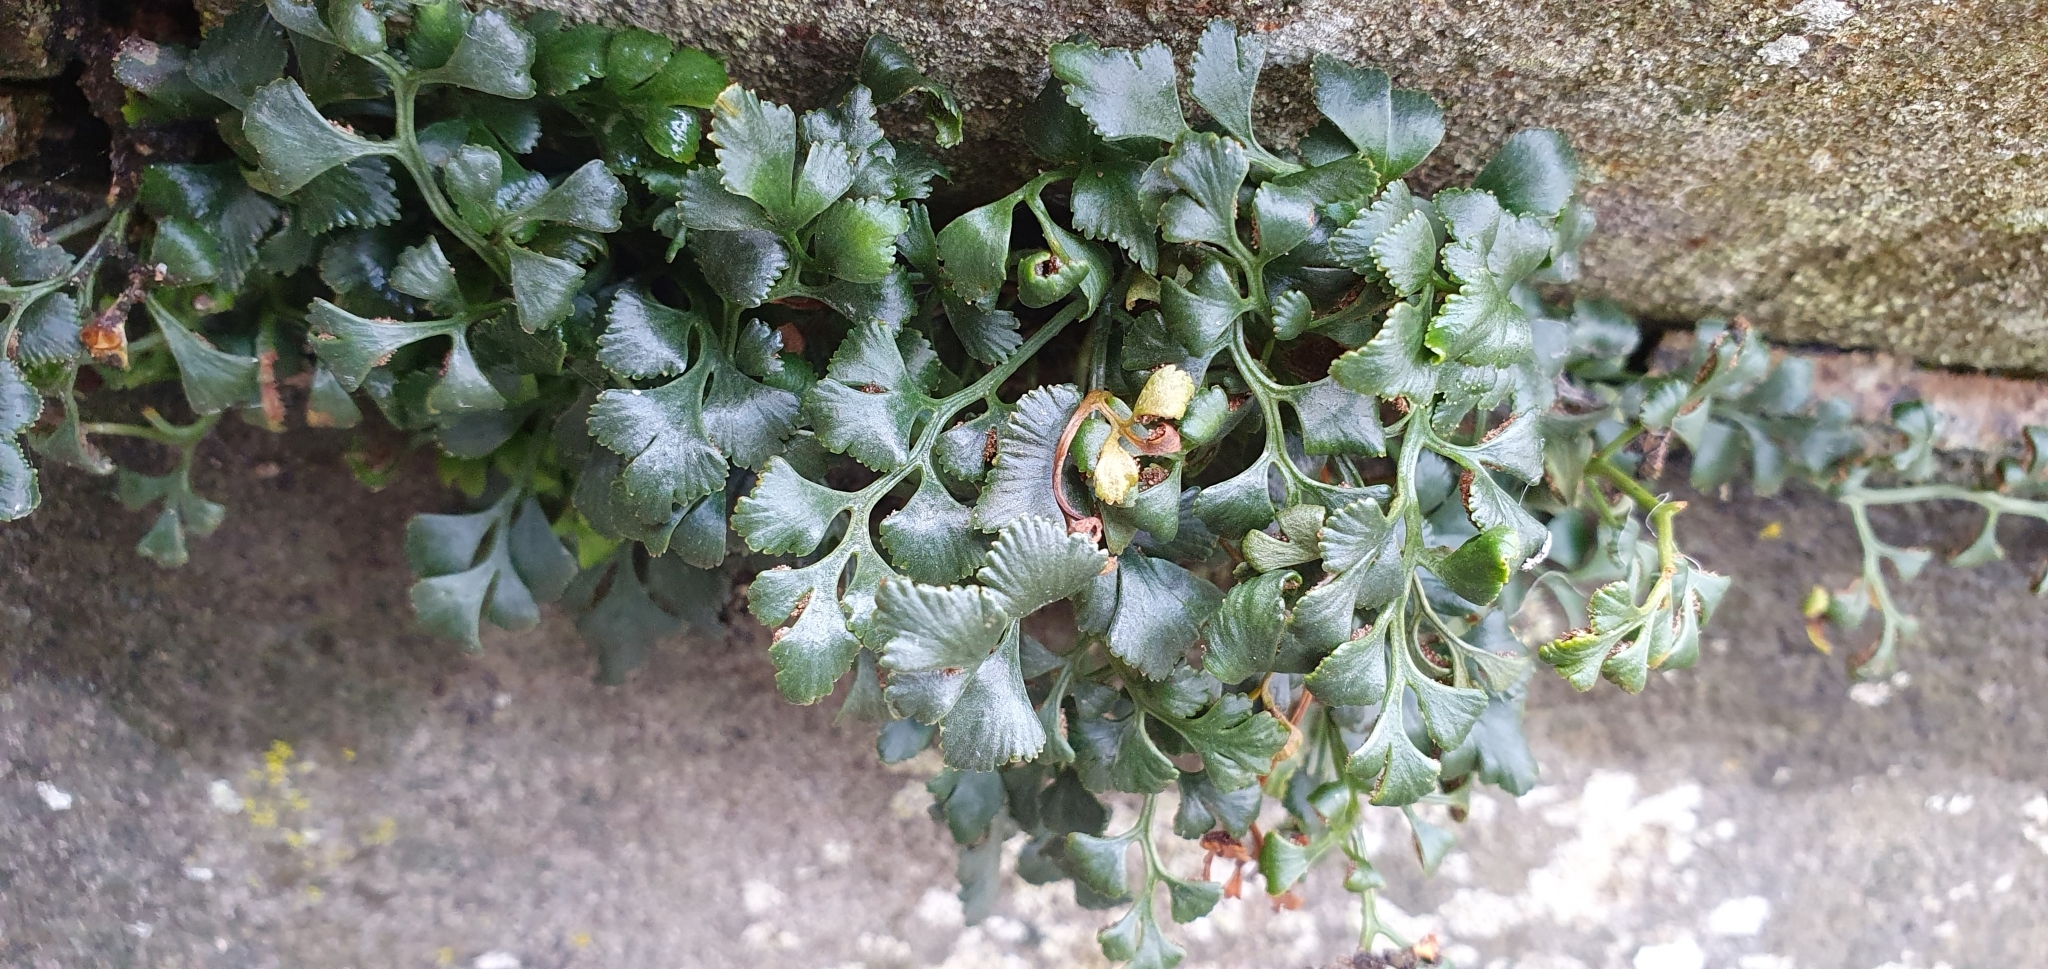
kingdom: Plantae
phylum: Tracheophyta
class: Polypodiopsida
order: Polypodiales
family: Aspleniaceae
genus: Asplenium
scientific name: Asplenium ruta-muraria
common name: Wall-rue
